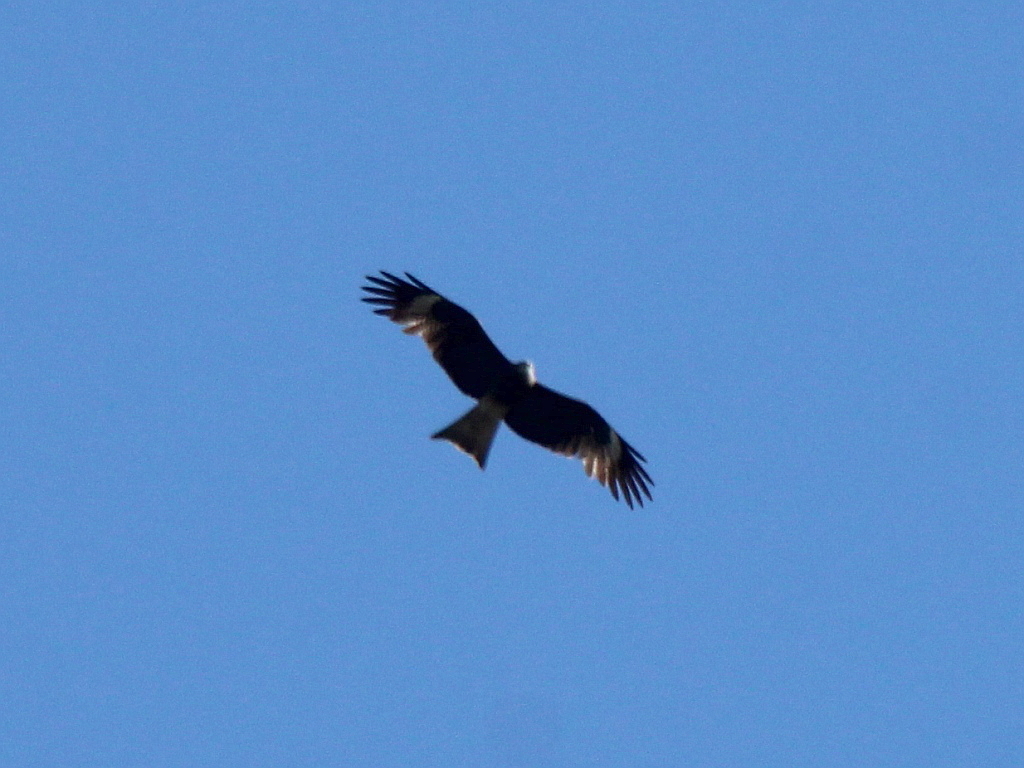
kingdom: Animalia
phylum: Chordata
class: Aves
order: Accipitriformes
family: Accipitridae
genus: Milvus
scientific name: Milvus migrans
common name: Black kite
